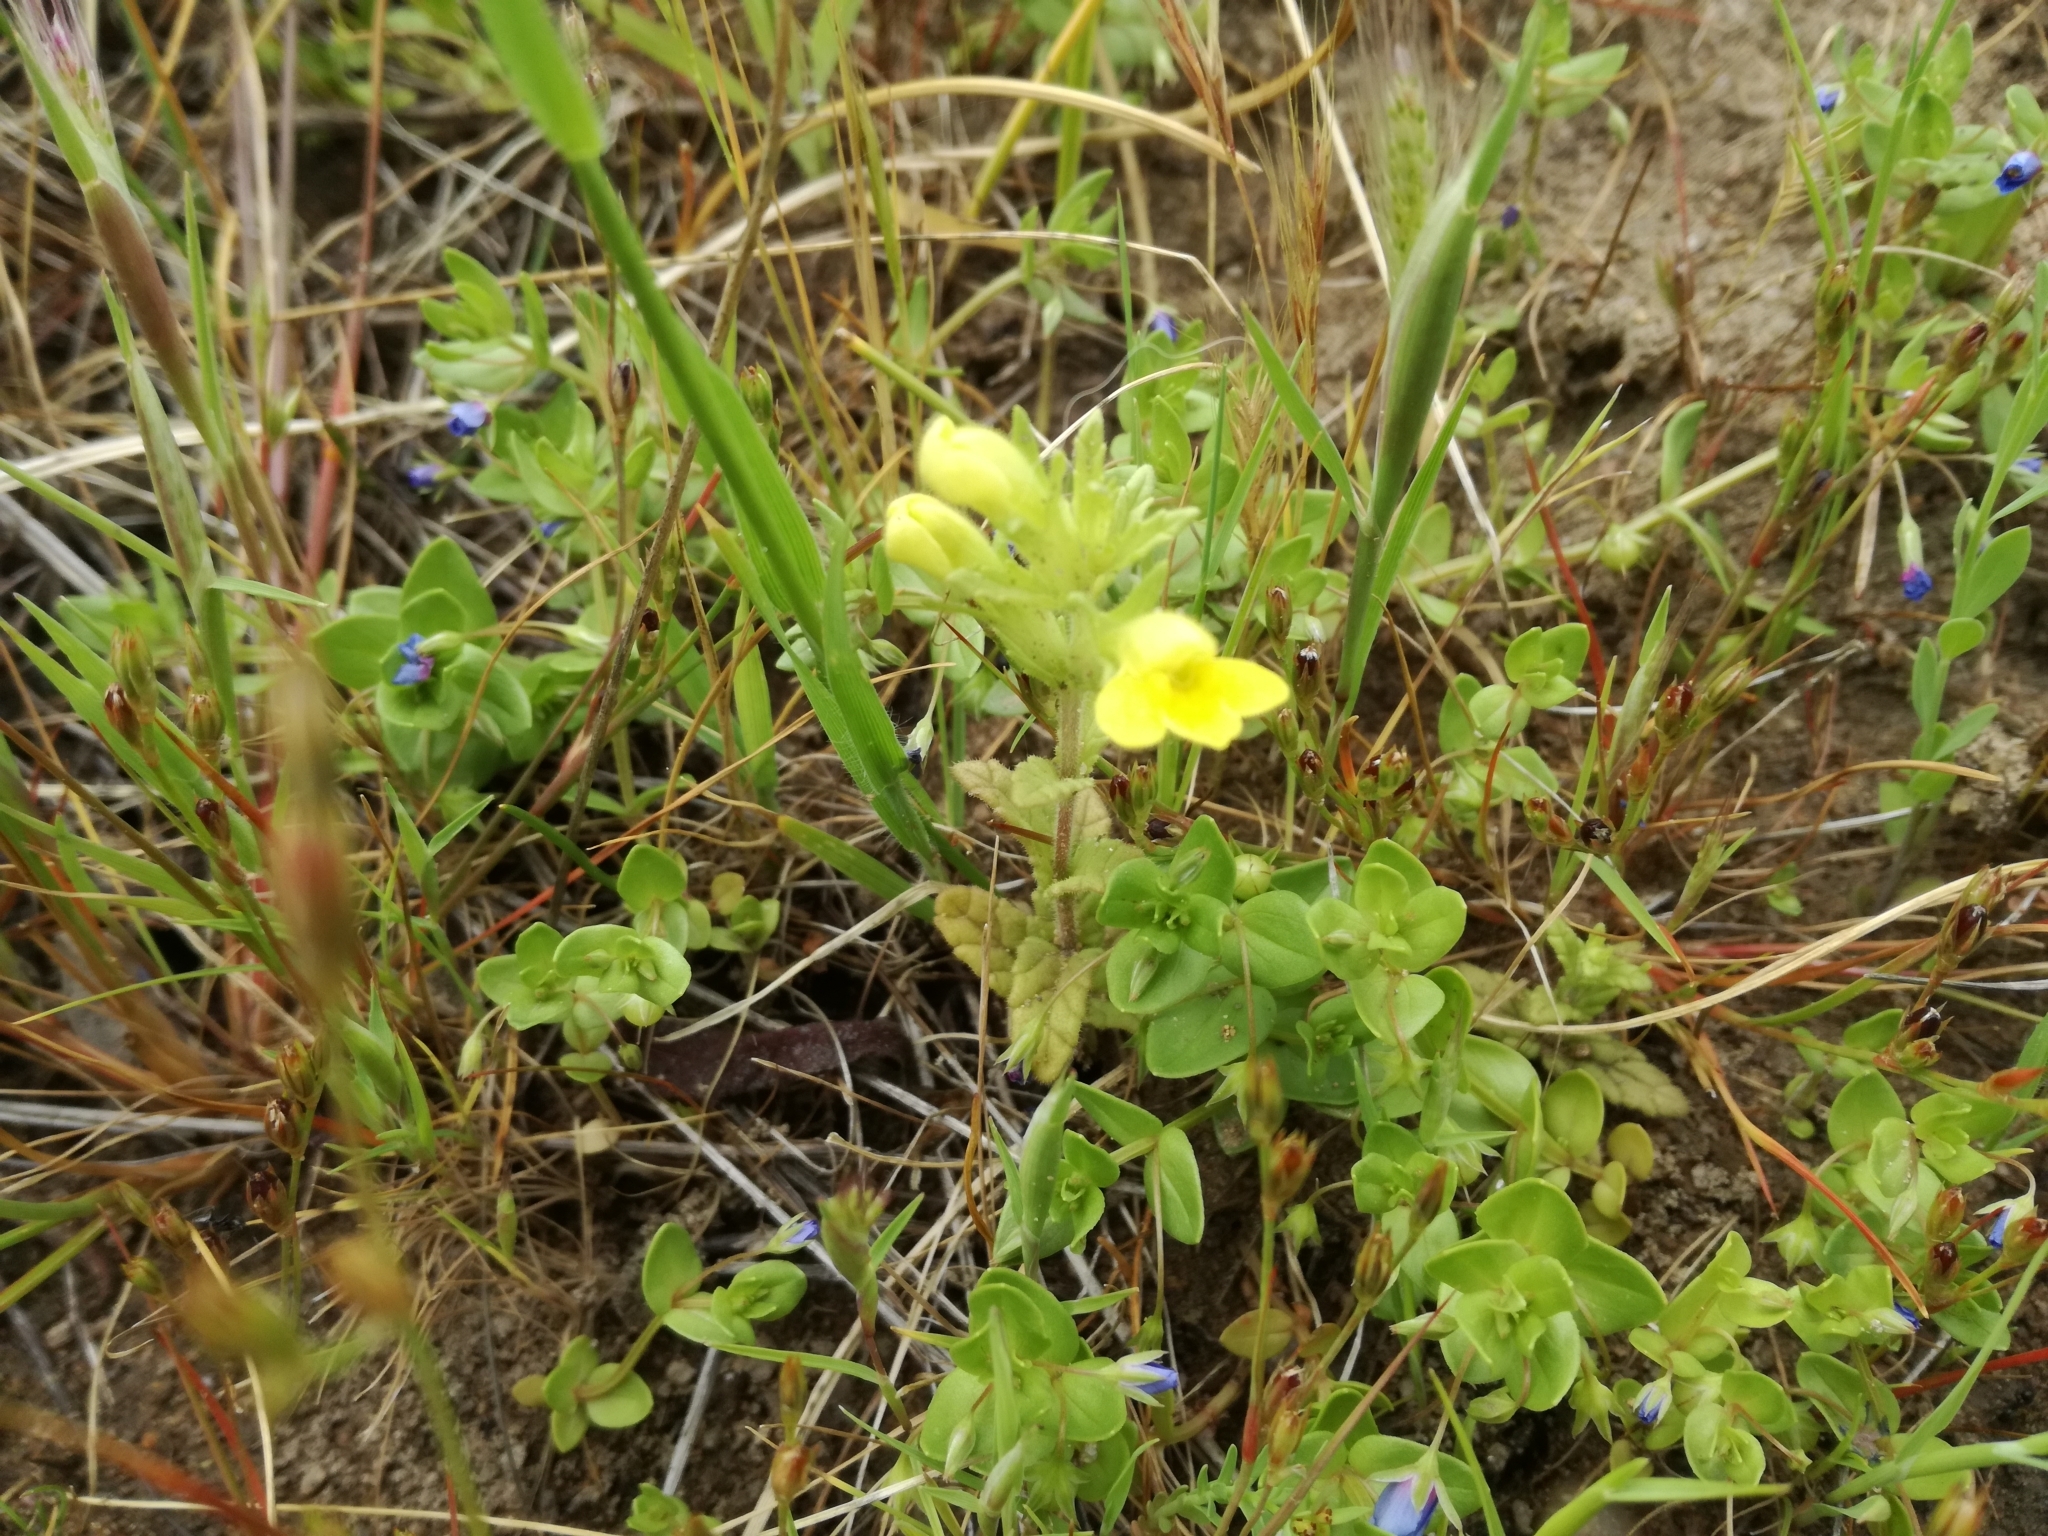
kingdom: Plantae
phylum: Tracheophyta
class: Magnoliopsida
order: Lamiales
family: Orobanchaceae
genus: Bellardia
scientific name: Bellardia viscosa
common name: Sticky parentucellia
